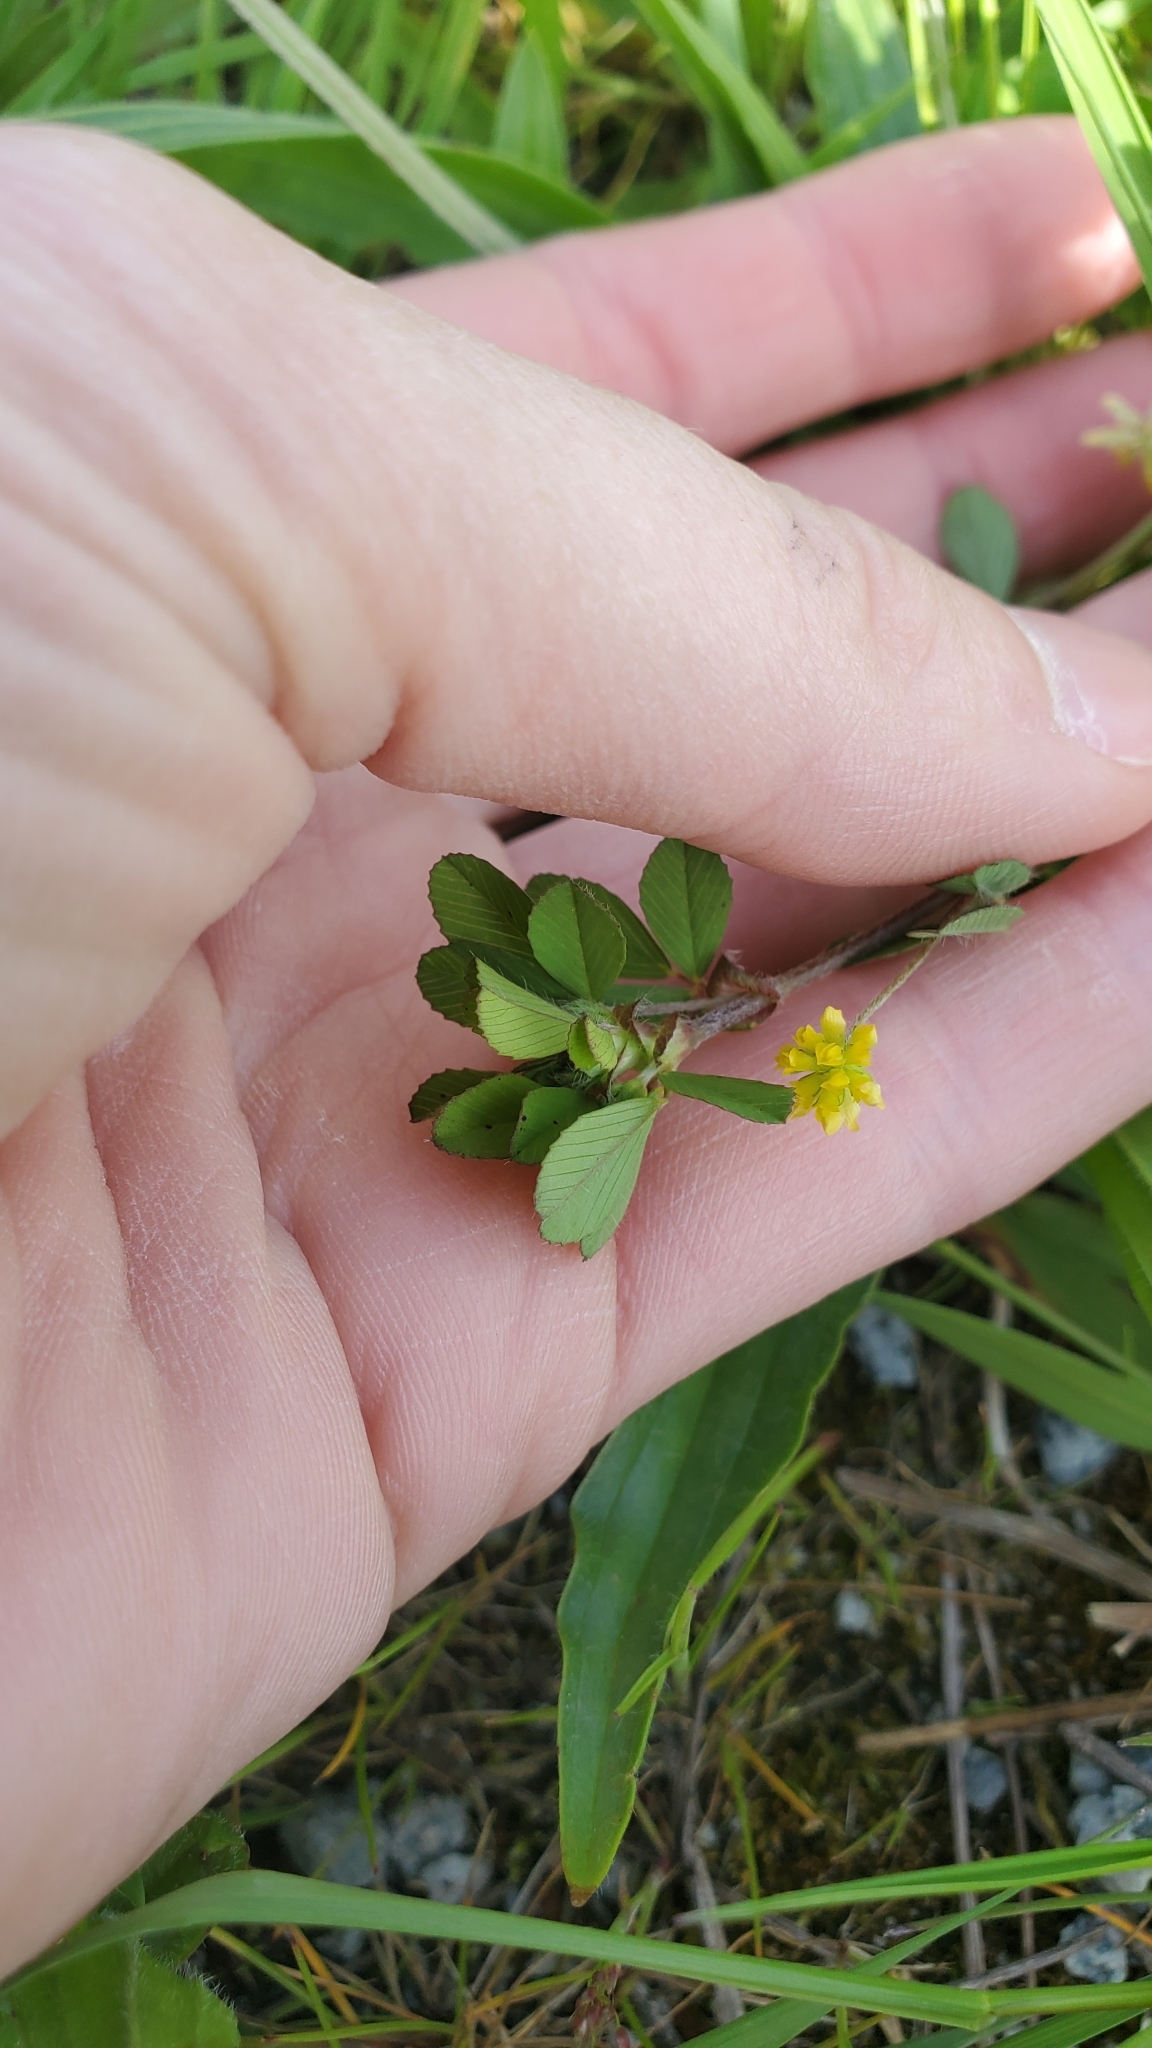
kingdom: Plantae
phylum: Tracheophyta
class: Magnoliopsida
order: Fabales
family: Fabaceae
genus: Trifolium
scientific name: Trifolium dubium
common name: Suckling clover
